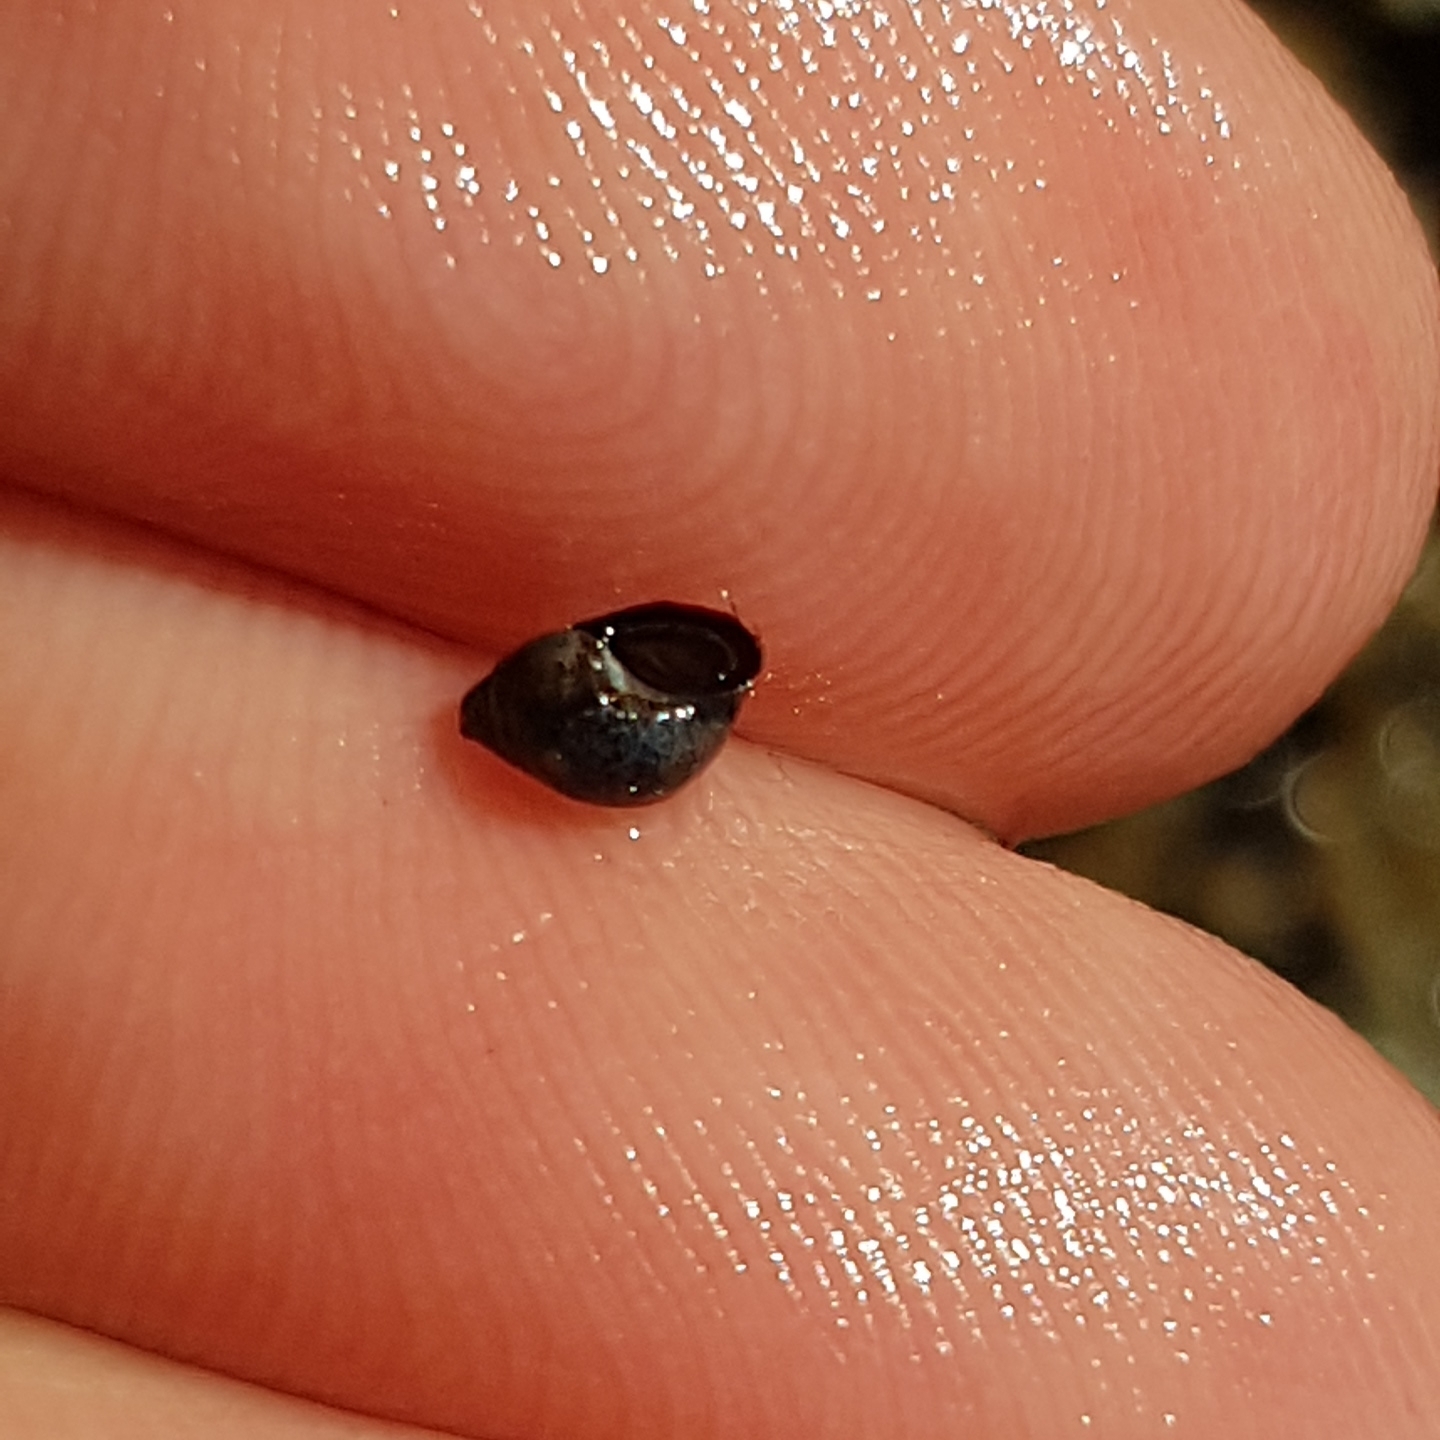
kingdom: Animalia
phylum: Mollusca
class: Gastropoda
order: Littorinimorpha
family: Littorinidae
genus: Melarhaphe
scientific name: Melarhaphe neritoides
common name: Small periwinkle
